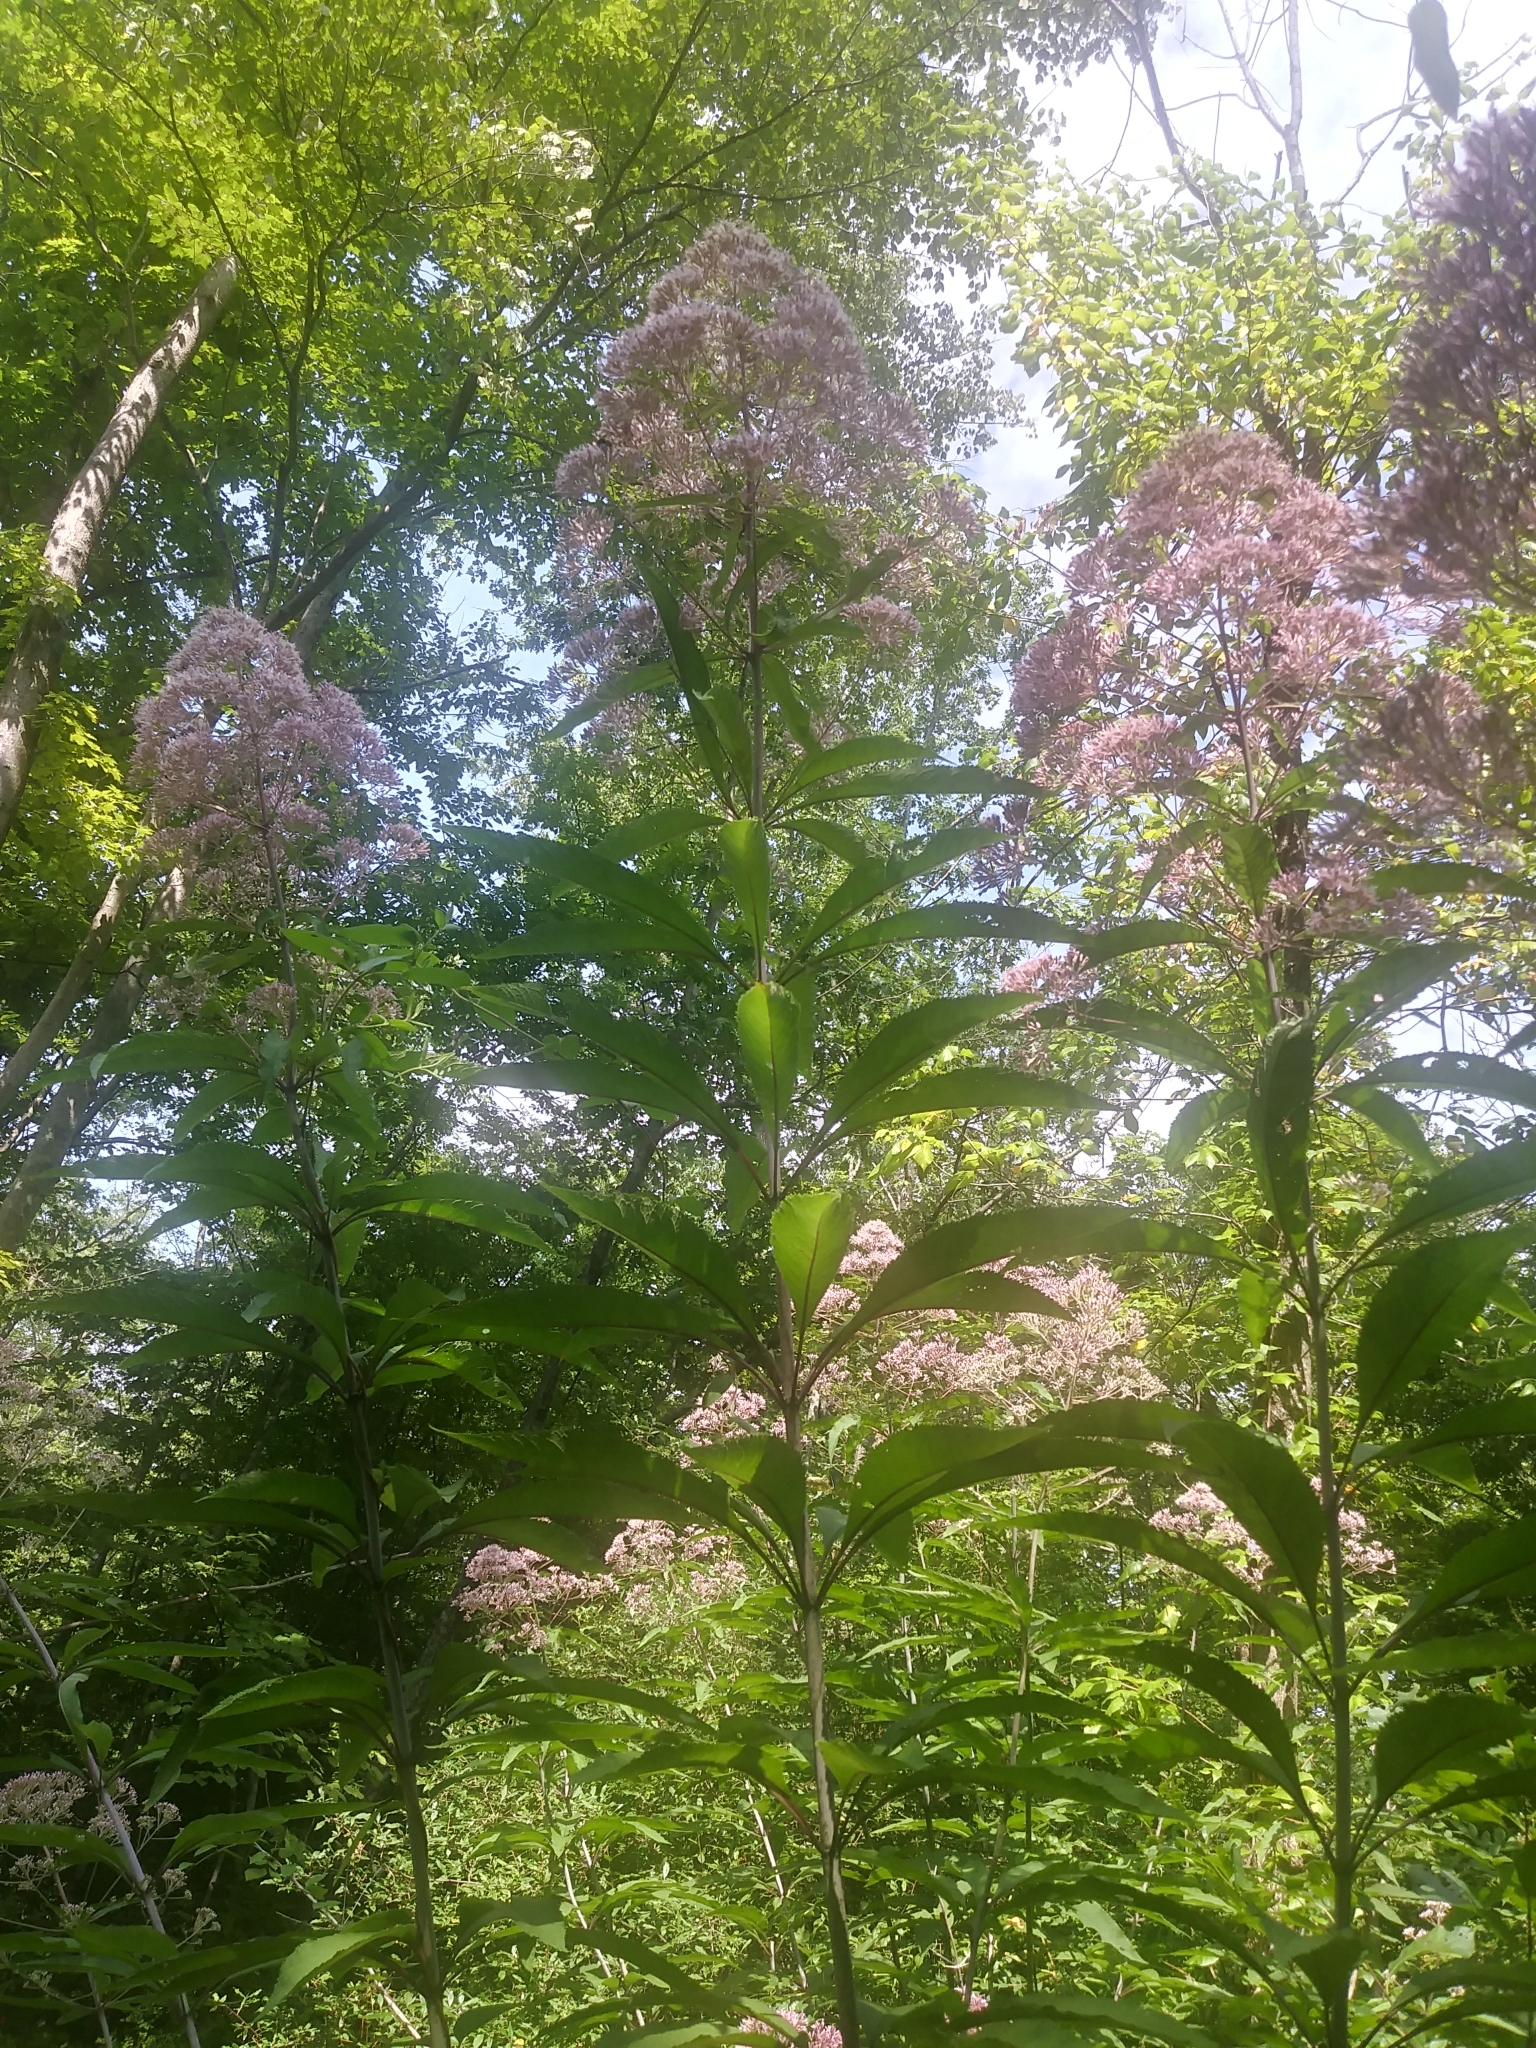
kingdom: Plantae
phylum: Tracheophyta
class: Magnoliopsida
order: Asterales
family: Asteraceae
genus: Eutrochium
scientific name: Eutrochium fistulosum
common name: Trumpetweed
